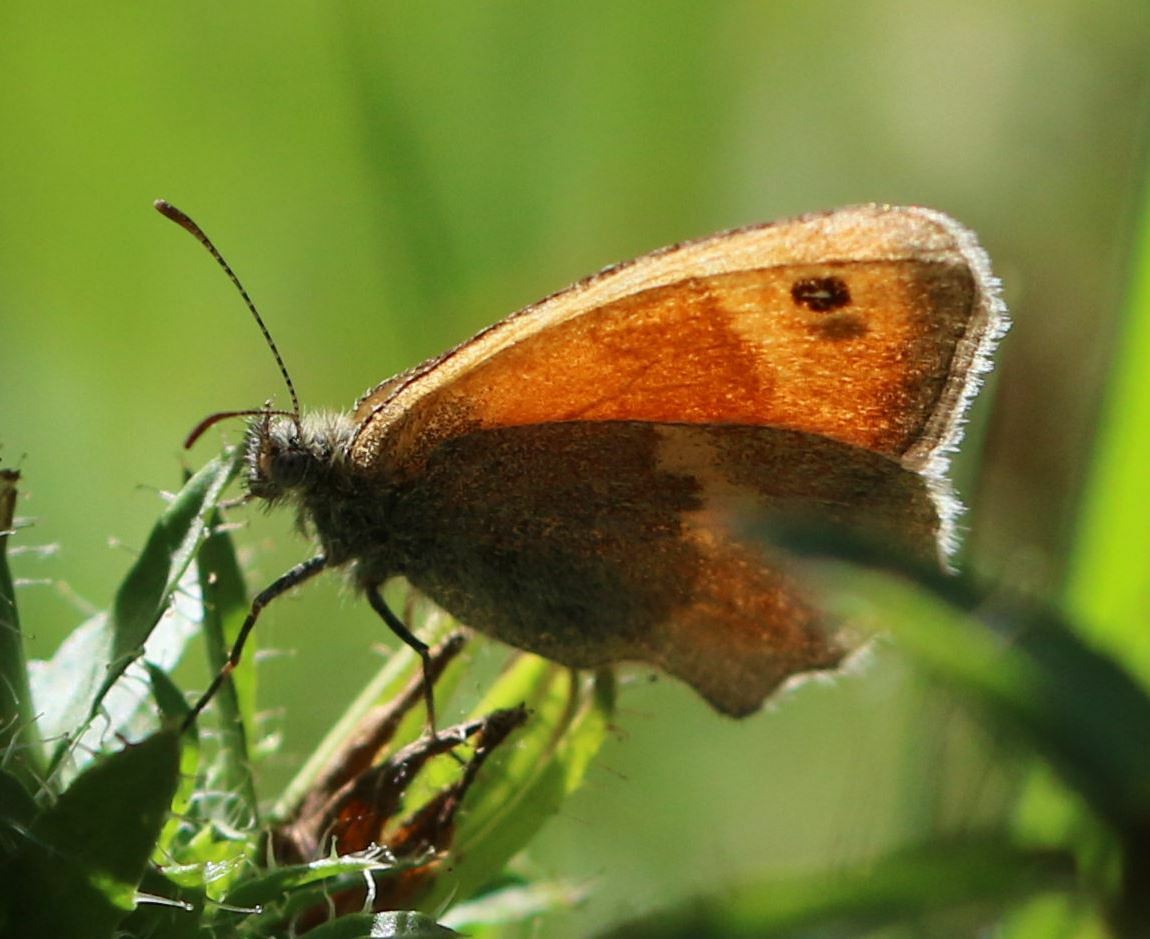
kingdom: Animalia
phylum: Arthropoda
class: Insecta
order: Lepidoptera
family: Nymphalidae
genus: Coenonympha
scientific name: Coenonympha pamphilus
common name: Small heath
